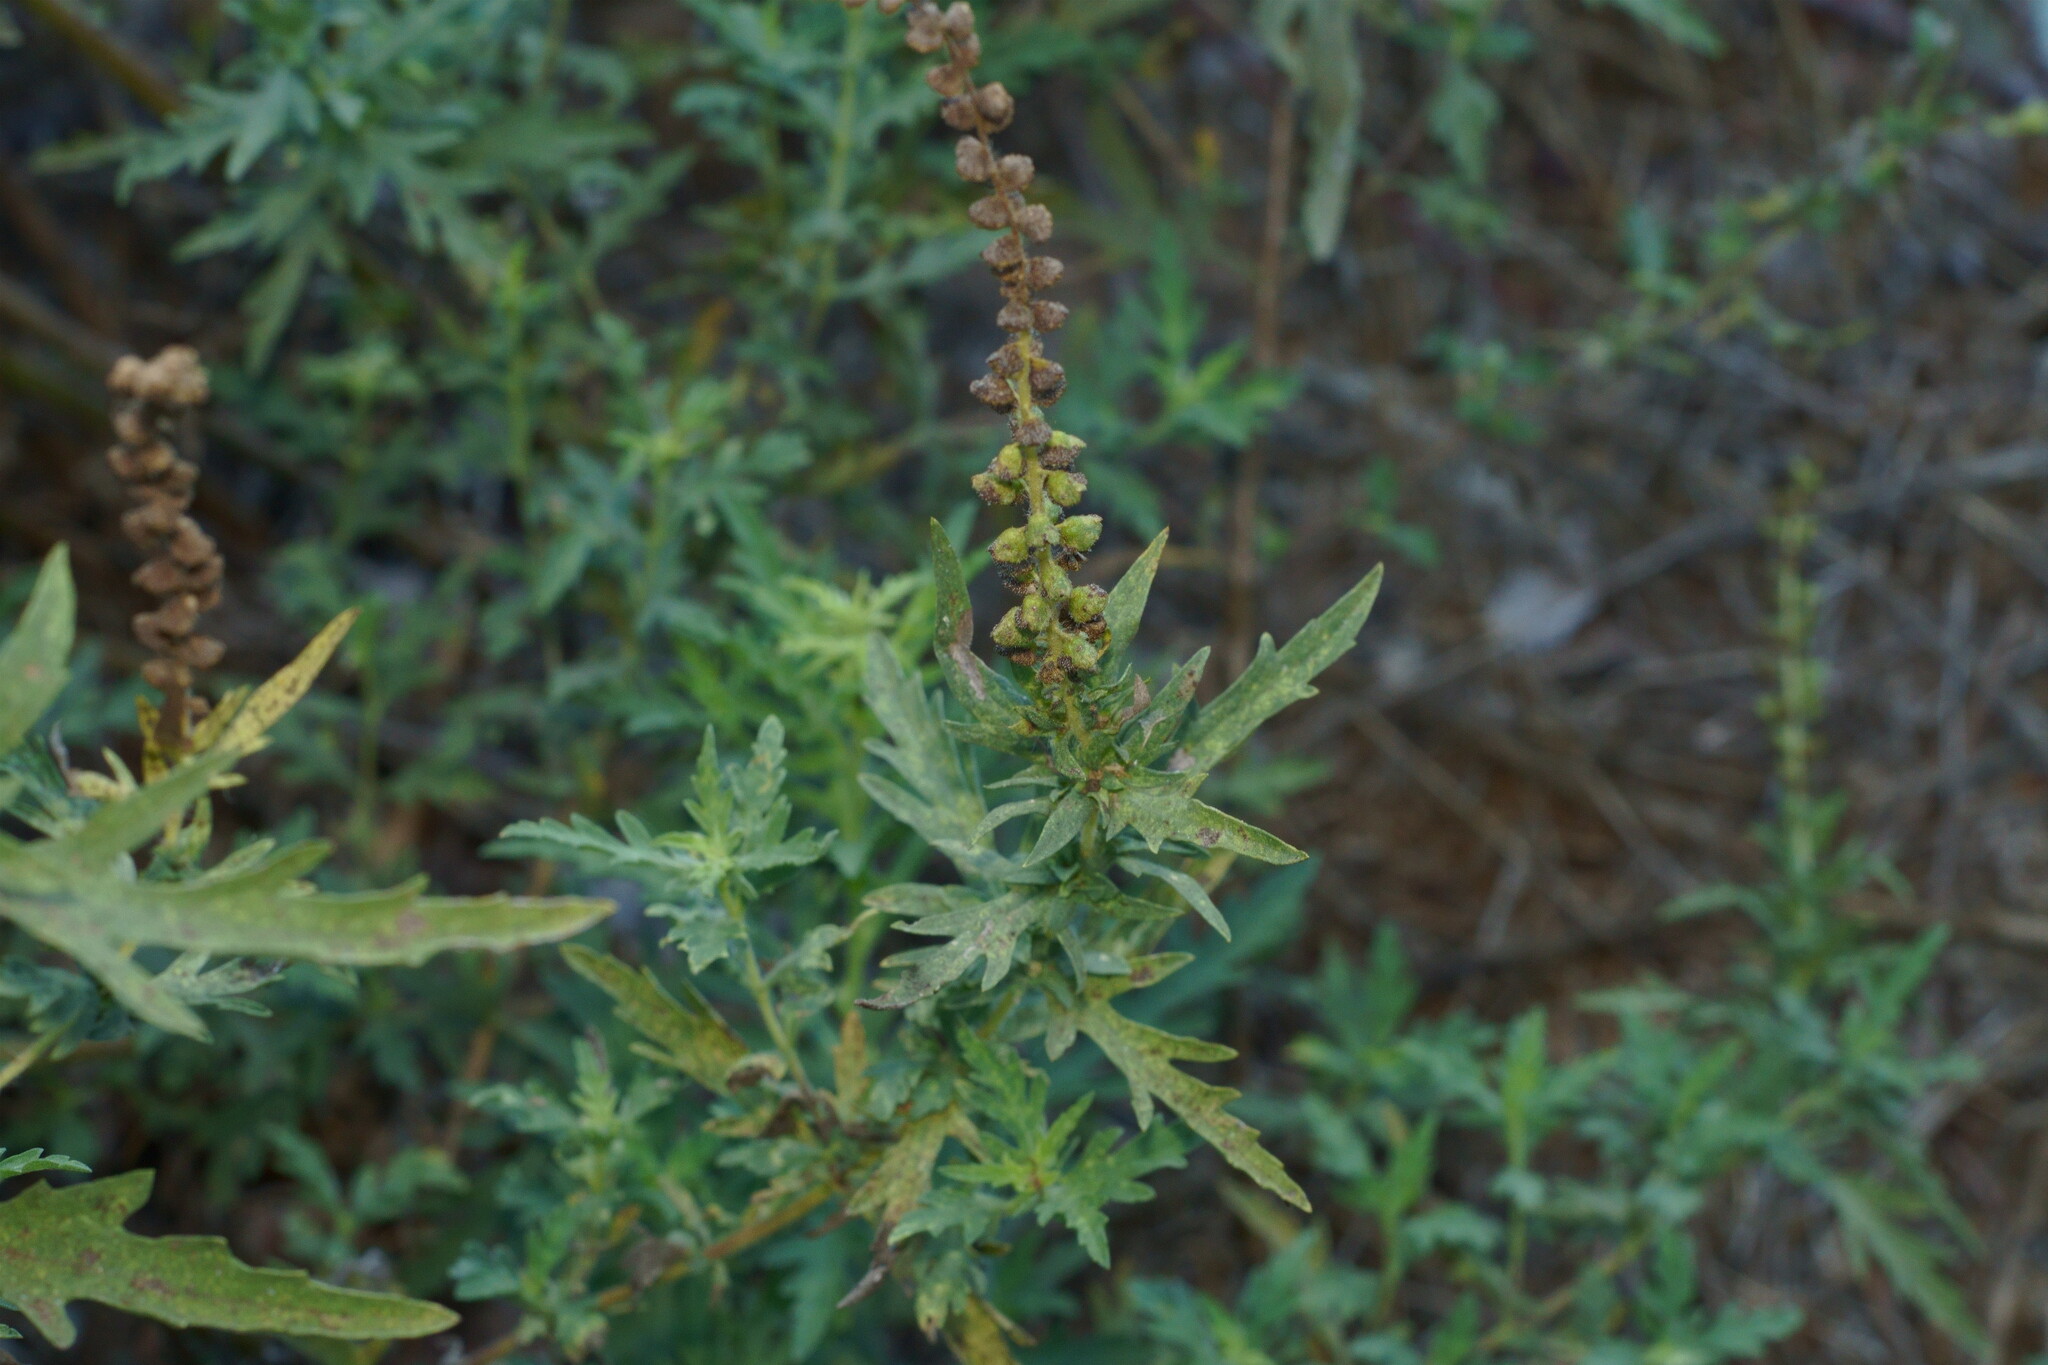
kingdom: Plantae
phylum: Tracheophyta
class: Magnoliopsida
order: Asterales
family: Asteraceae
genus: Ambrosia
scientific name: Ambrosia psilostachya
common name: Perennial ragweed
